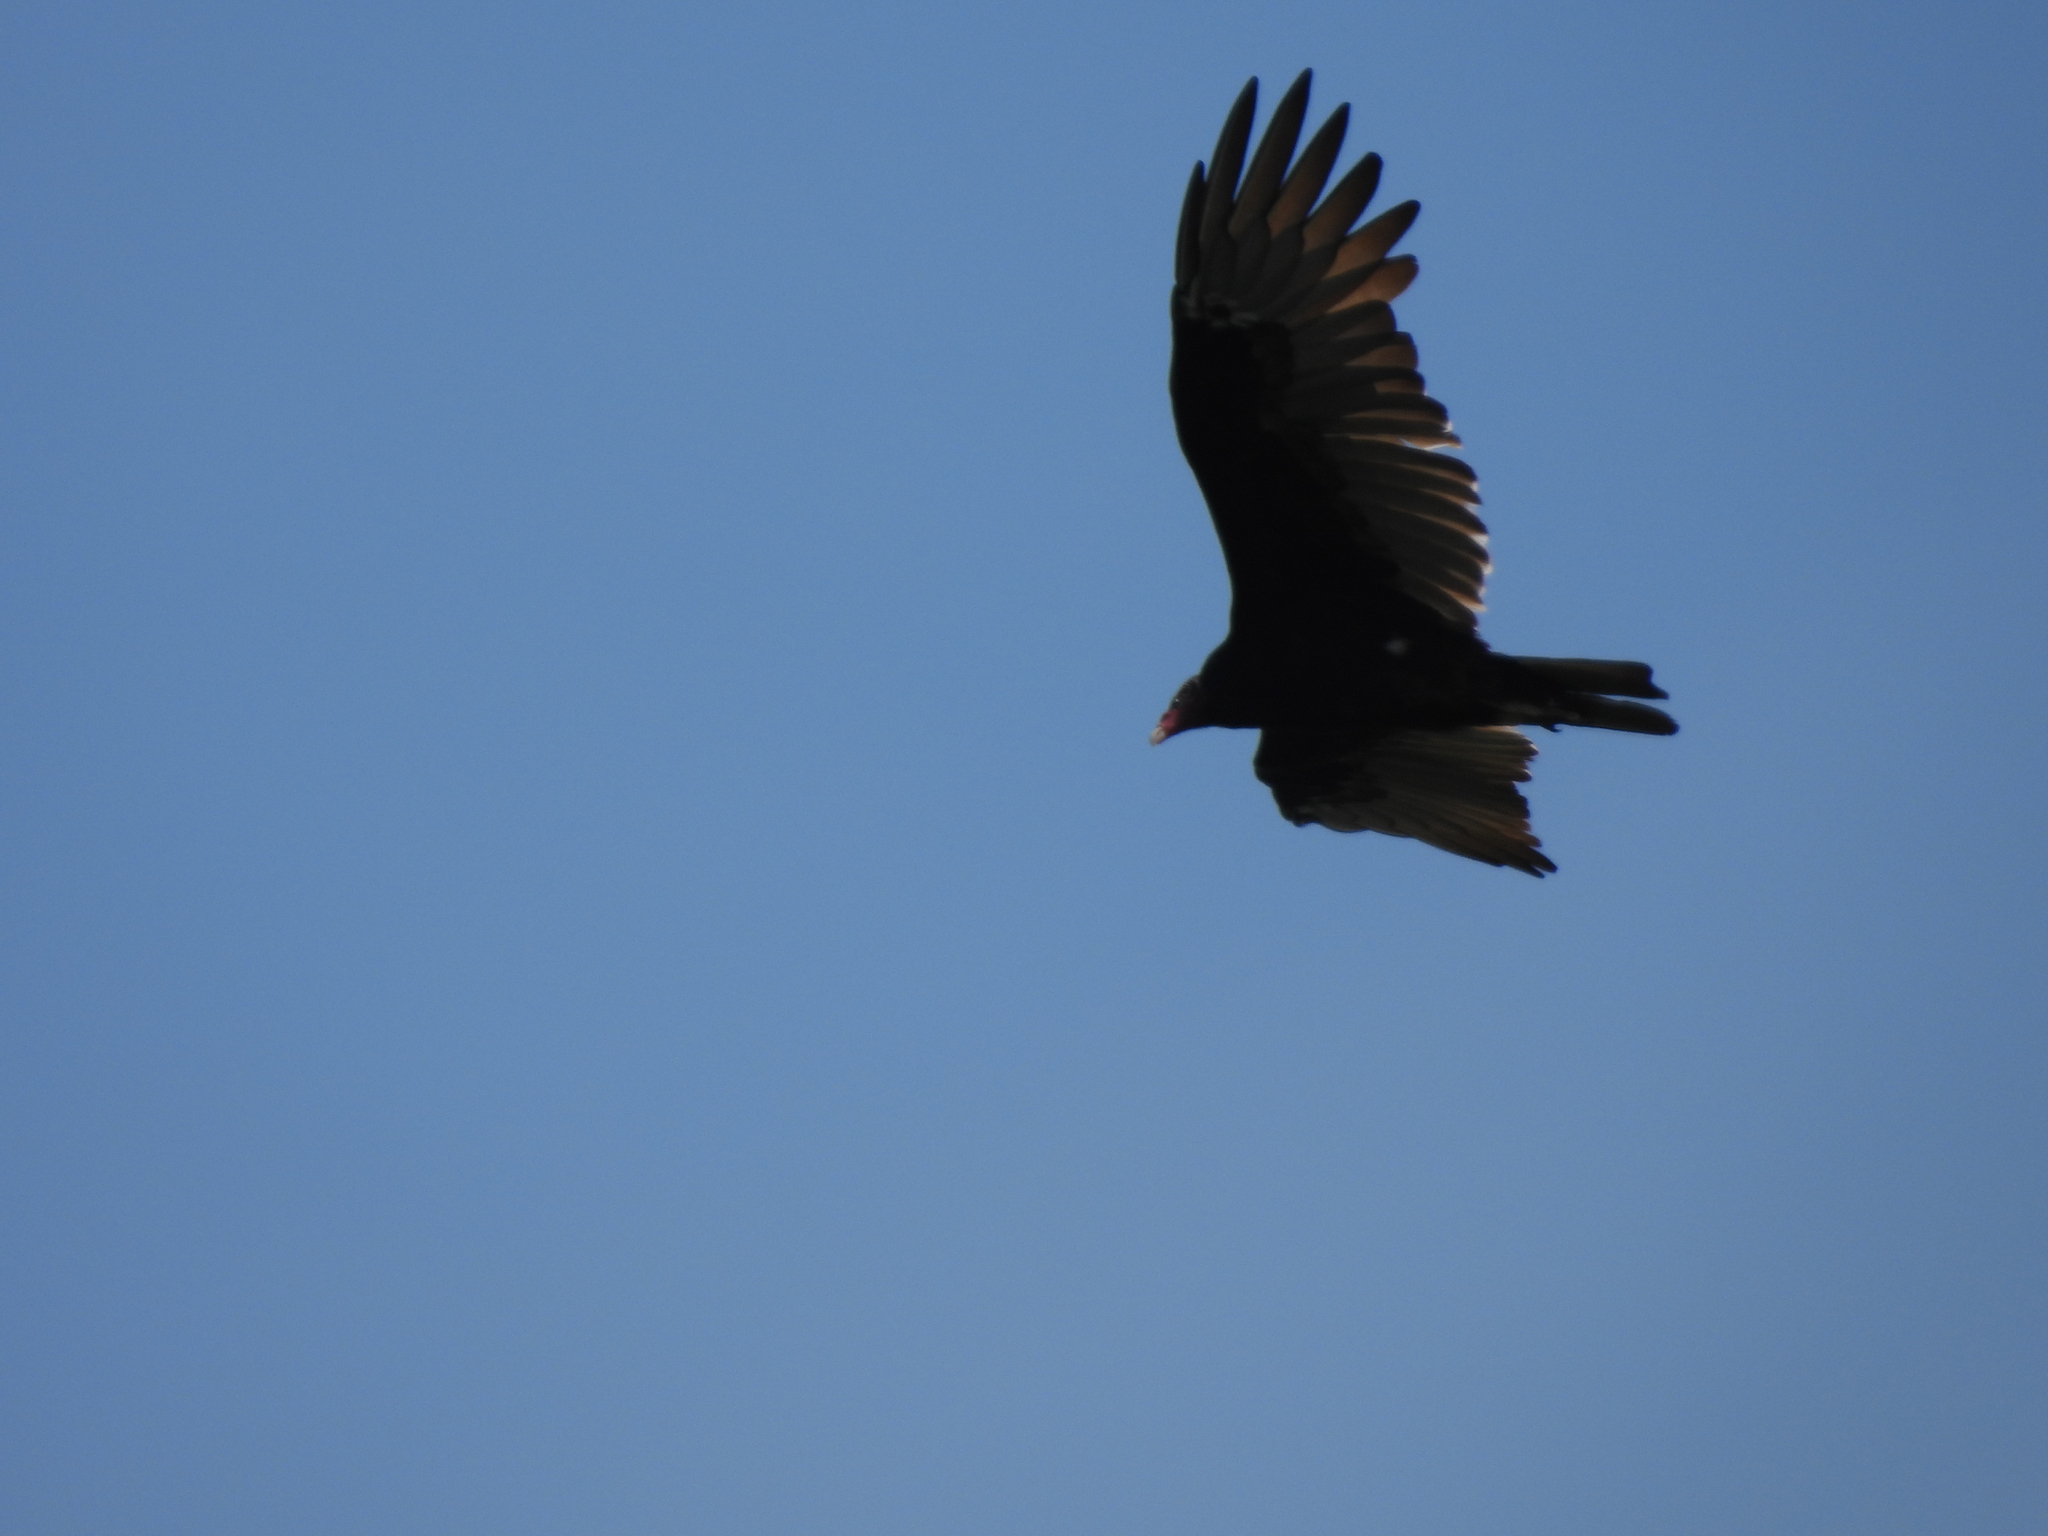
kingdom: Animalia
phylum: Chordata
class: Aves
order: Accipitriformes
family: Cathartidae
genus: Cathartes
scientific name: Cathartes aura
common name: Turkey vulture
